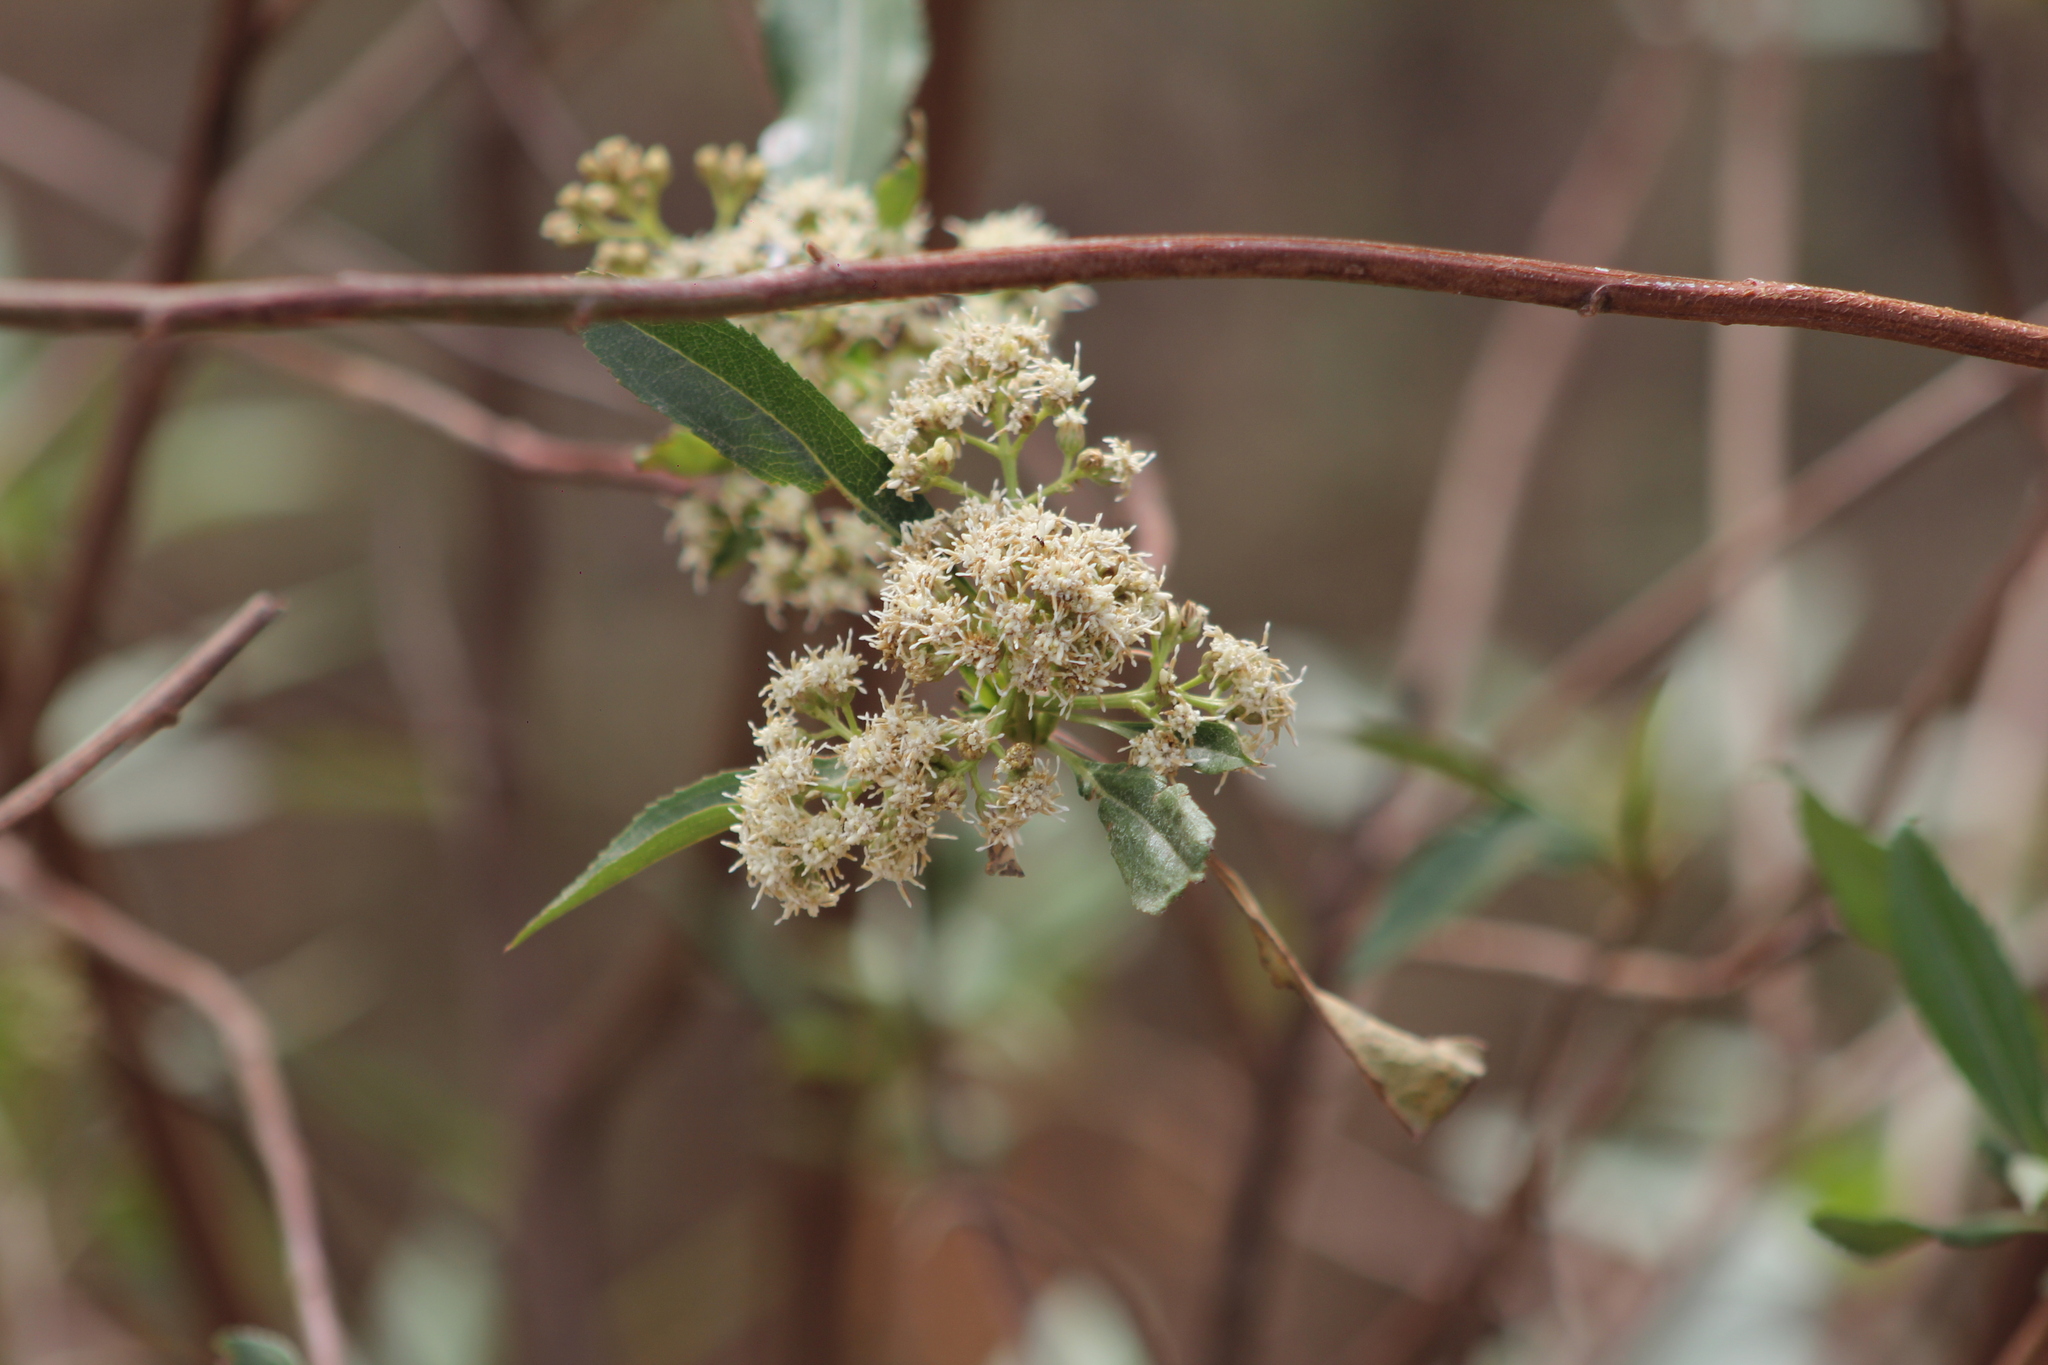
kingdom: Plantae
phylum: Tracheophyta
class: Magnoliopsida
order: Asterales
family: Asteraceae
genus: Baccharis
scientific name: Baccharis latifolia
